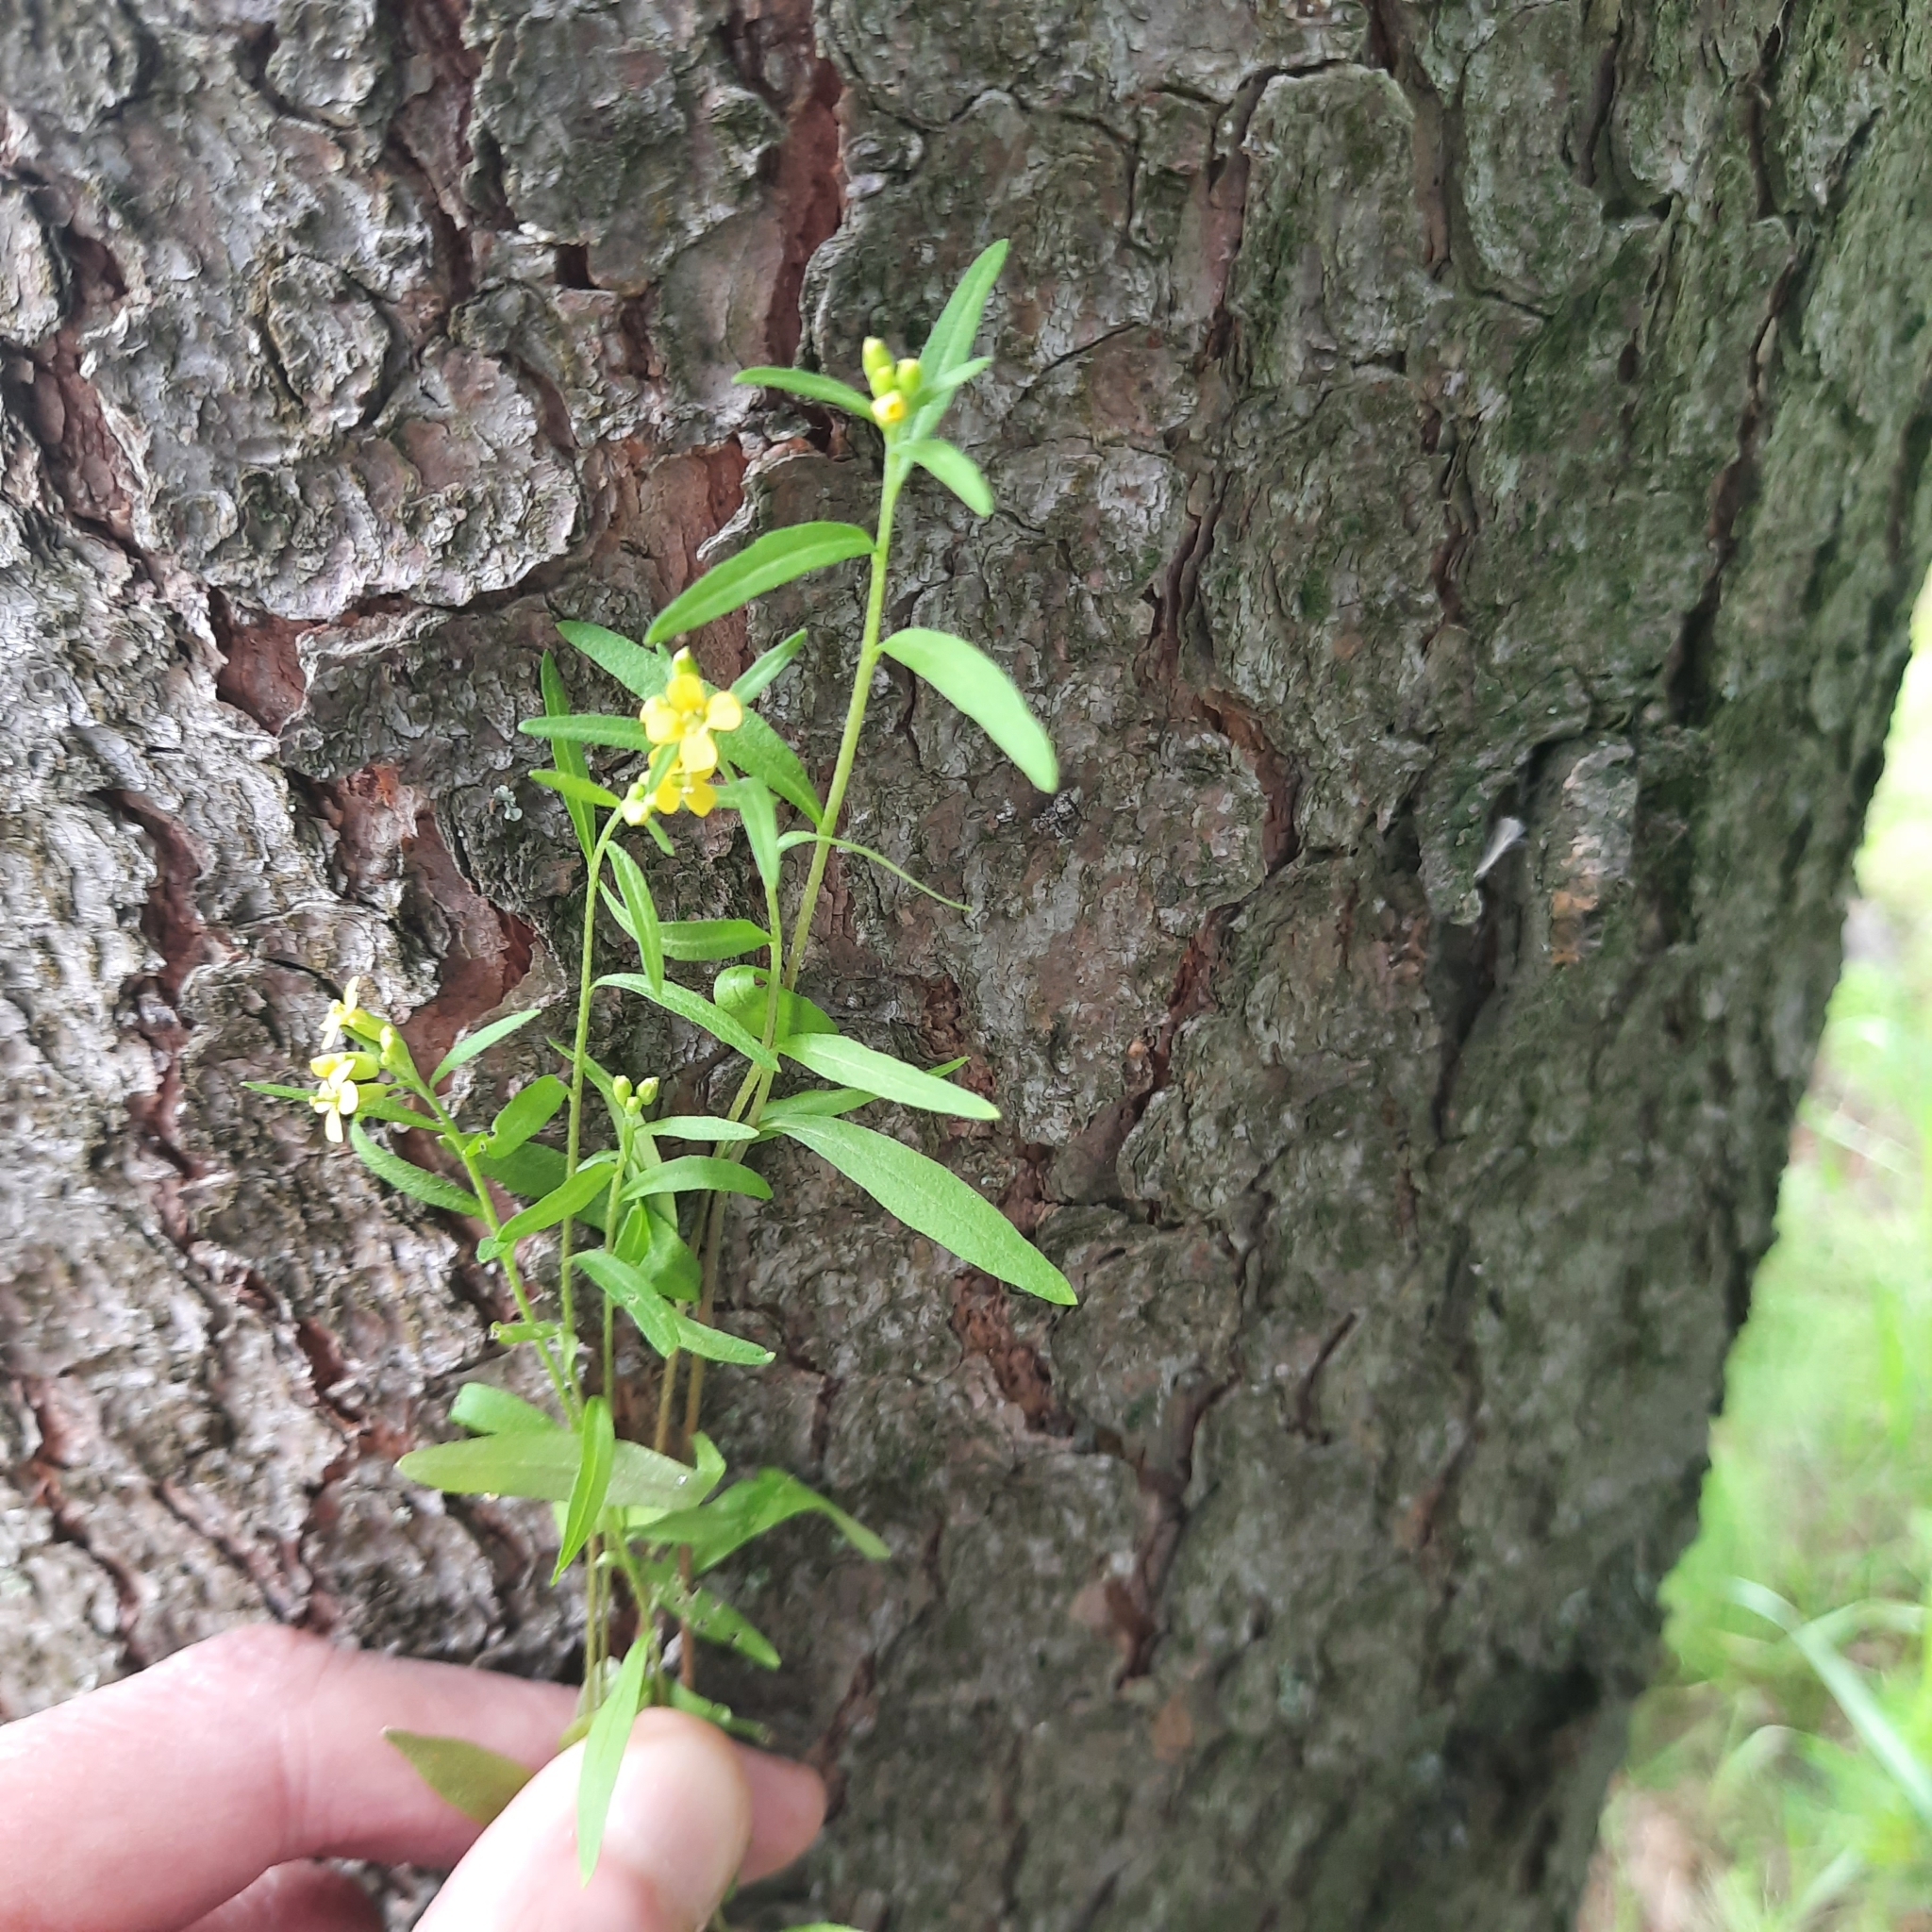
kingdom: Plantae
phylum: Tracheophyta
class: Magnoliopsida
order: Brassicales
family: Brassicaceae
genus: Erysimum
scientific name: Erysimum cheiranthoides
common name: Treacle mustard
